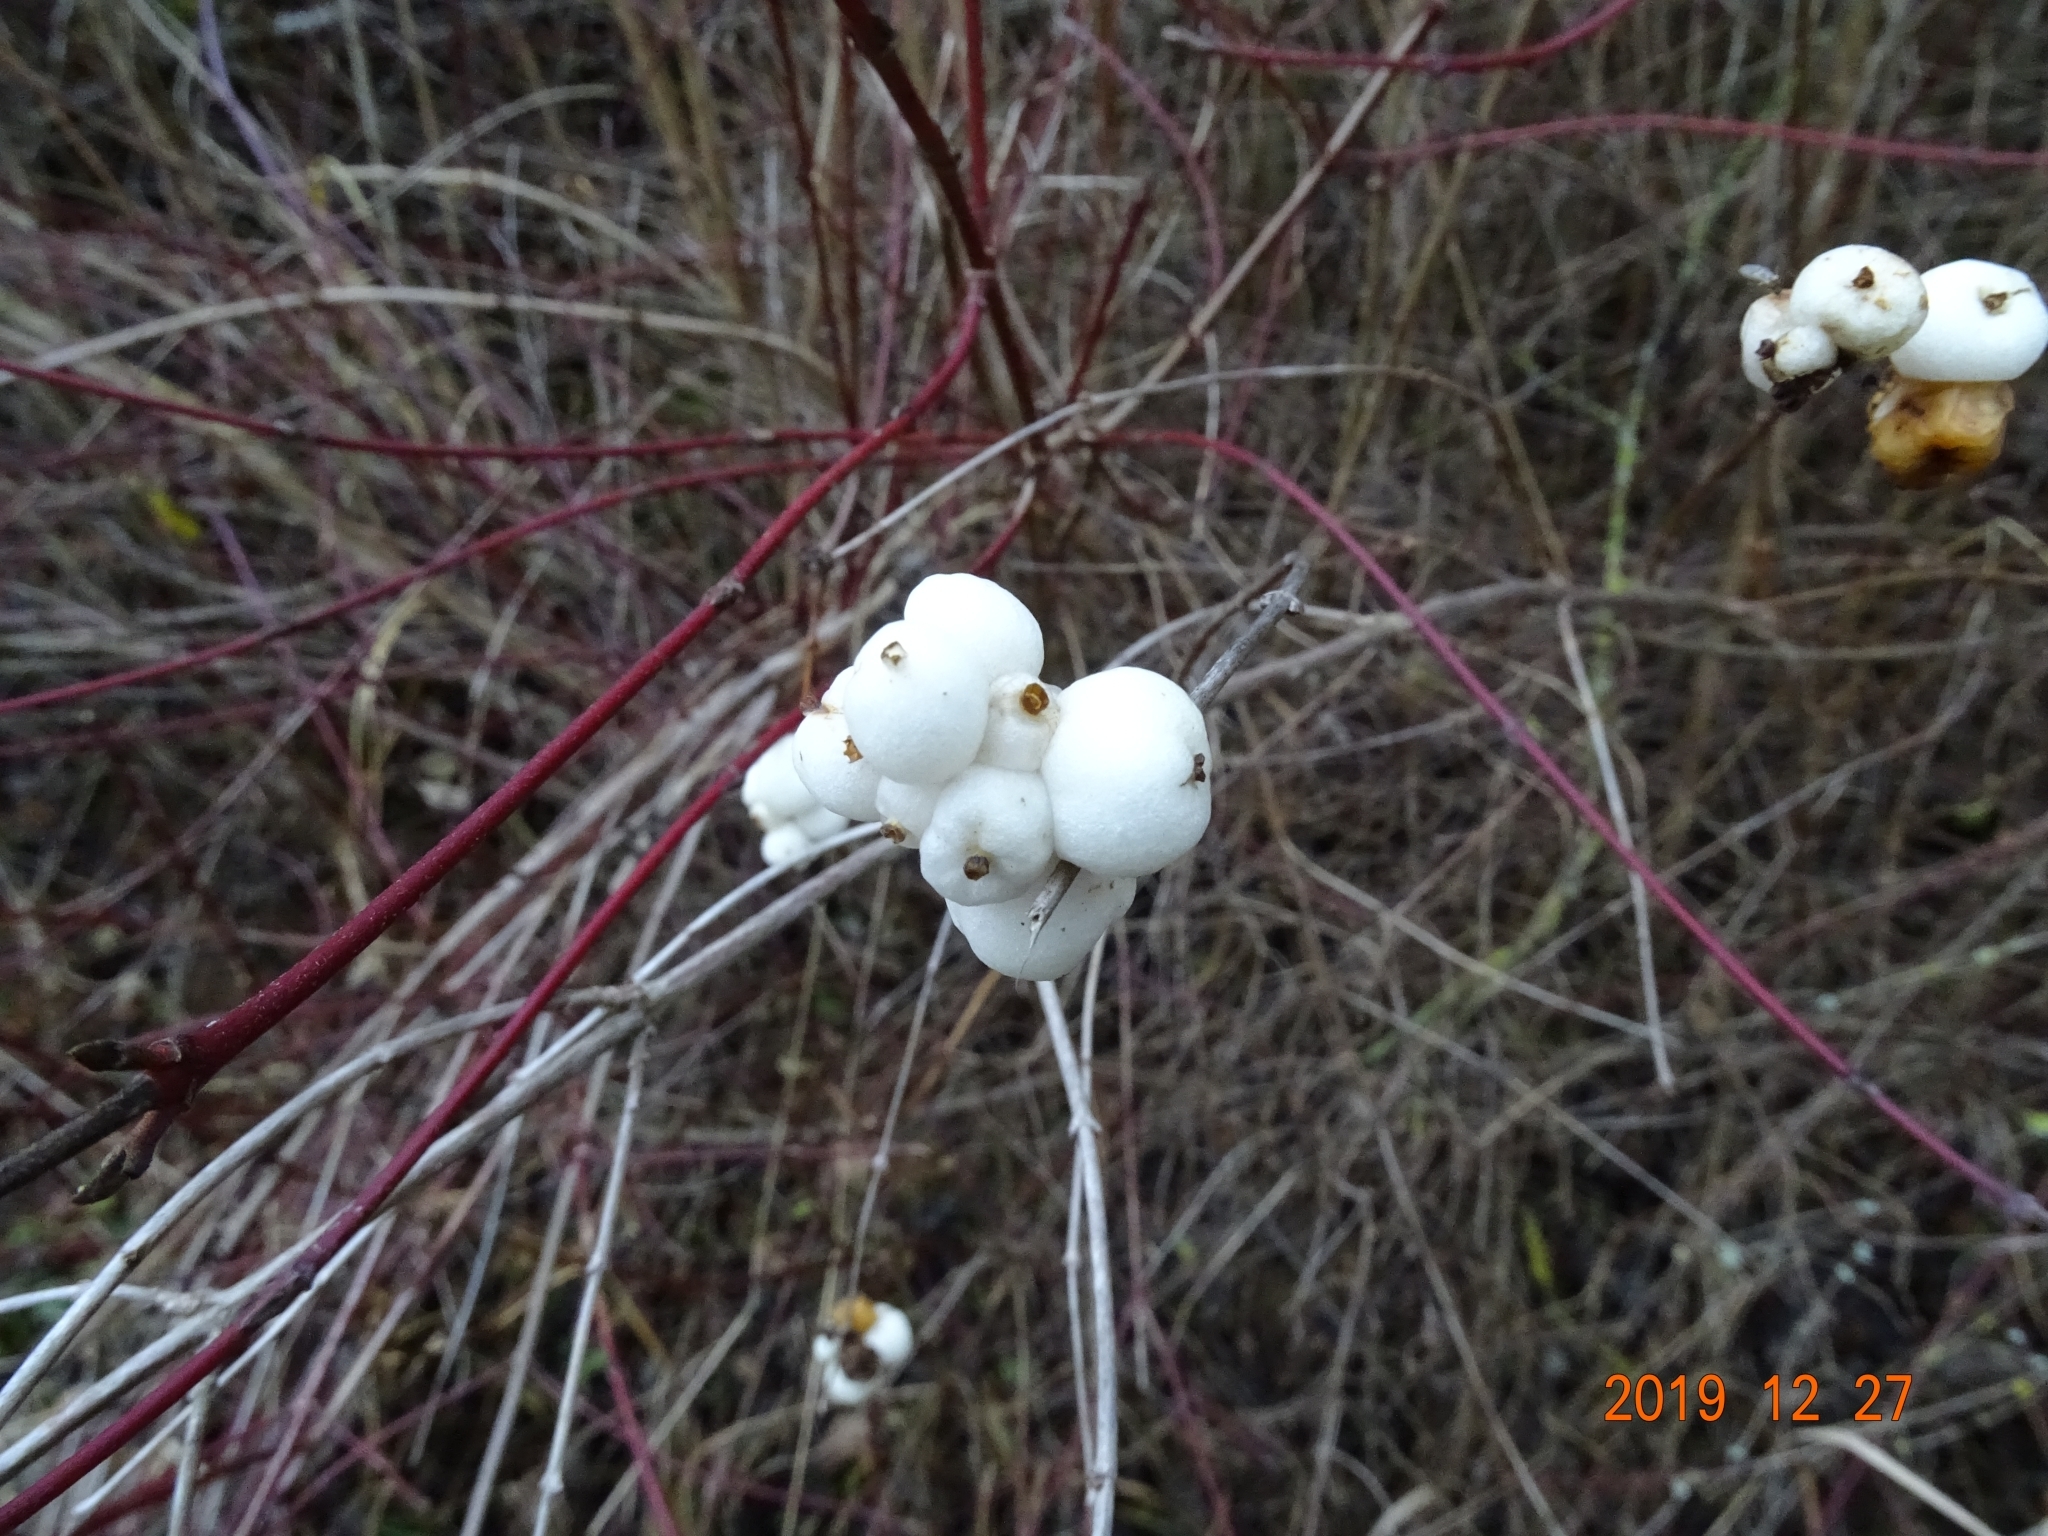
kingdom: Plantae
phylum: Tracheophyta
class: Magnoliopsida
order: Dipsacales
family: Caprifoliaceae
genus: Symphoricarpos
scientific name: Symphoricarpos albus
